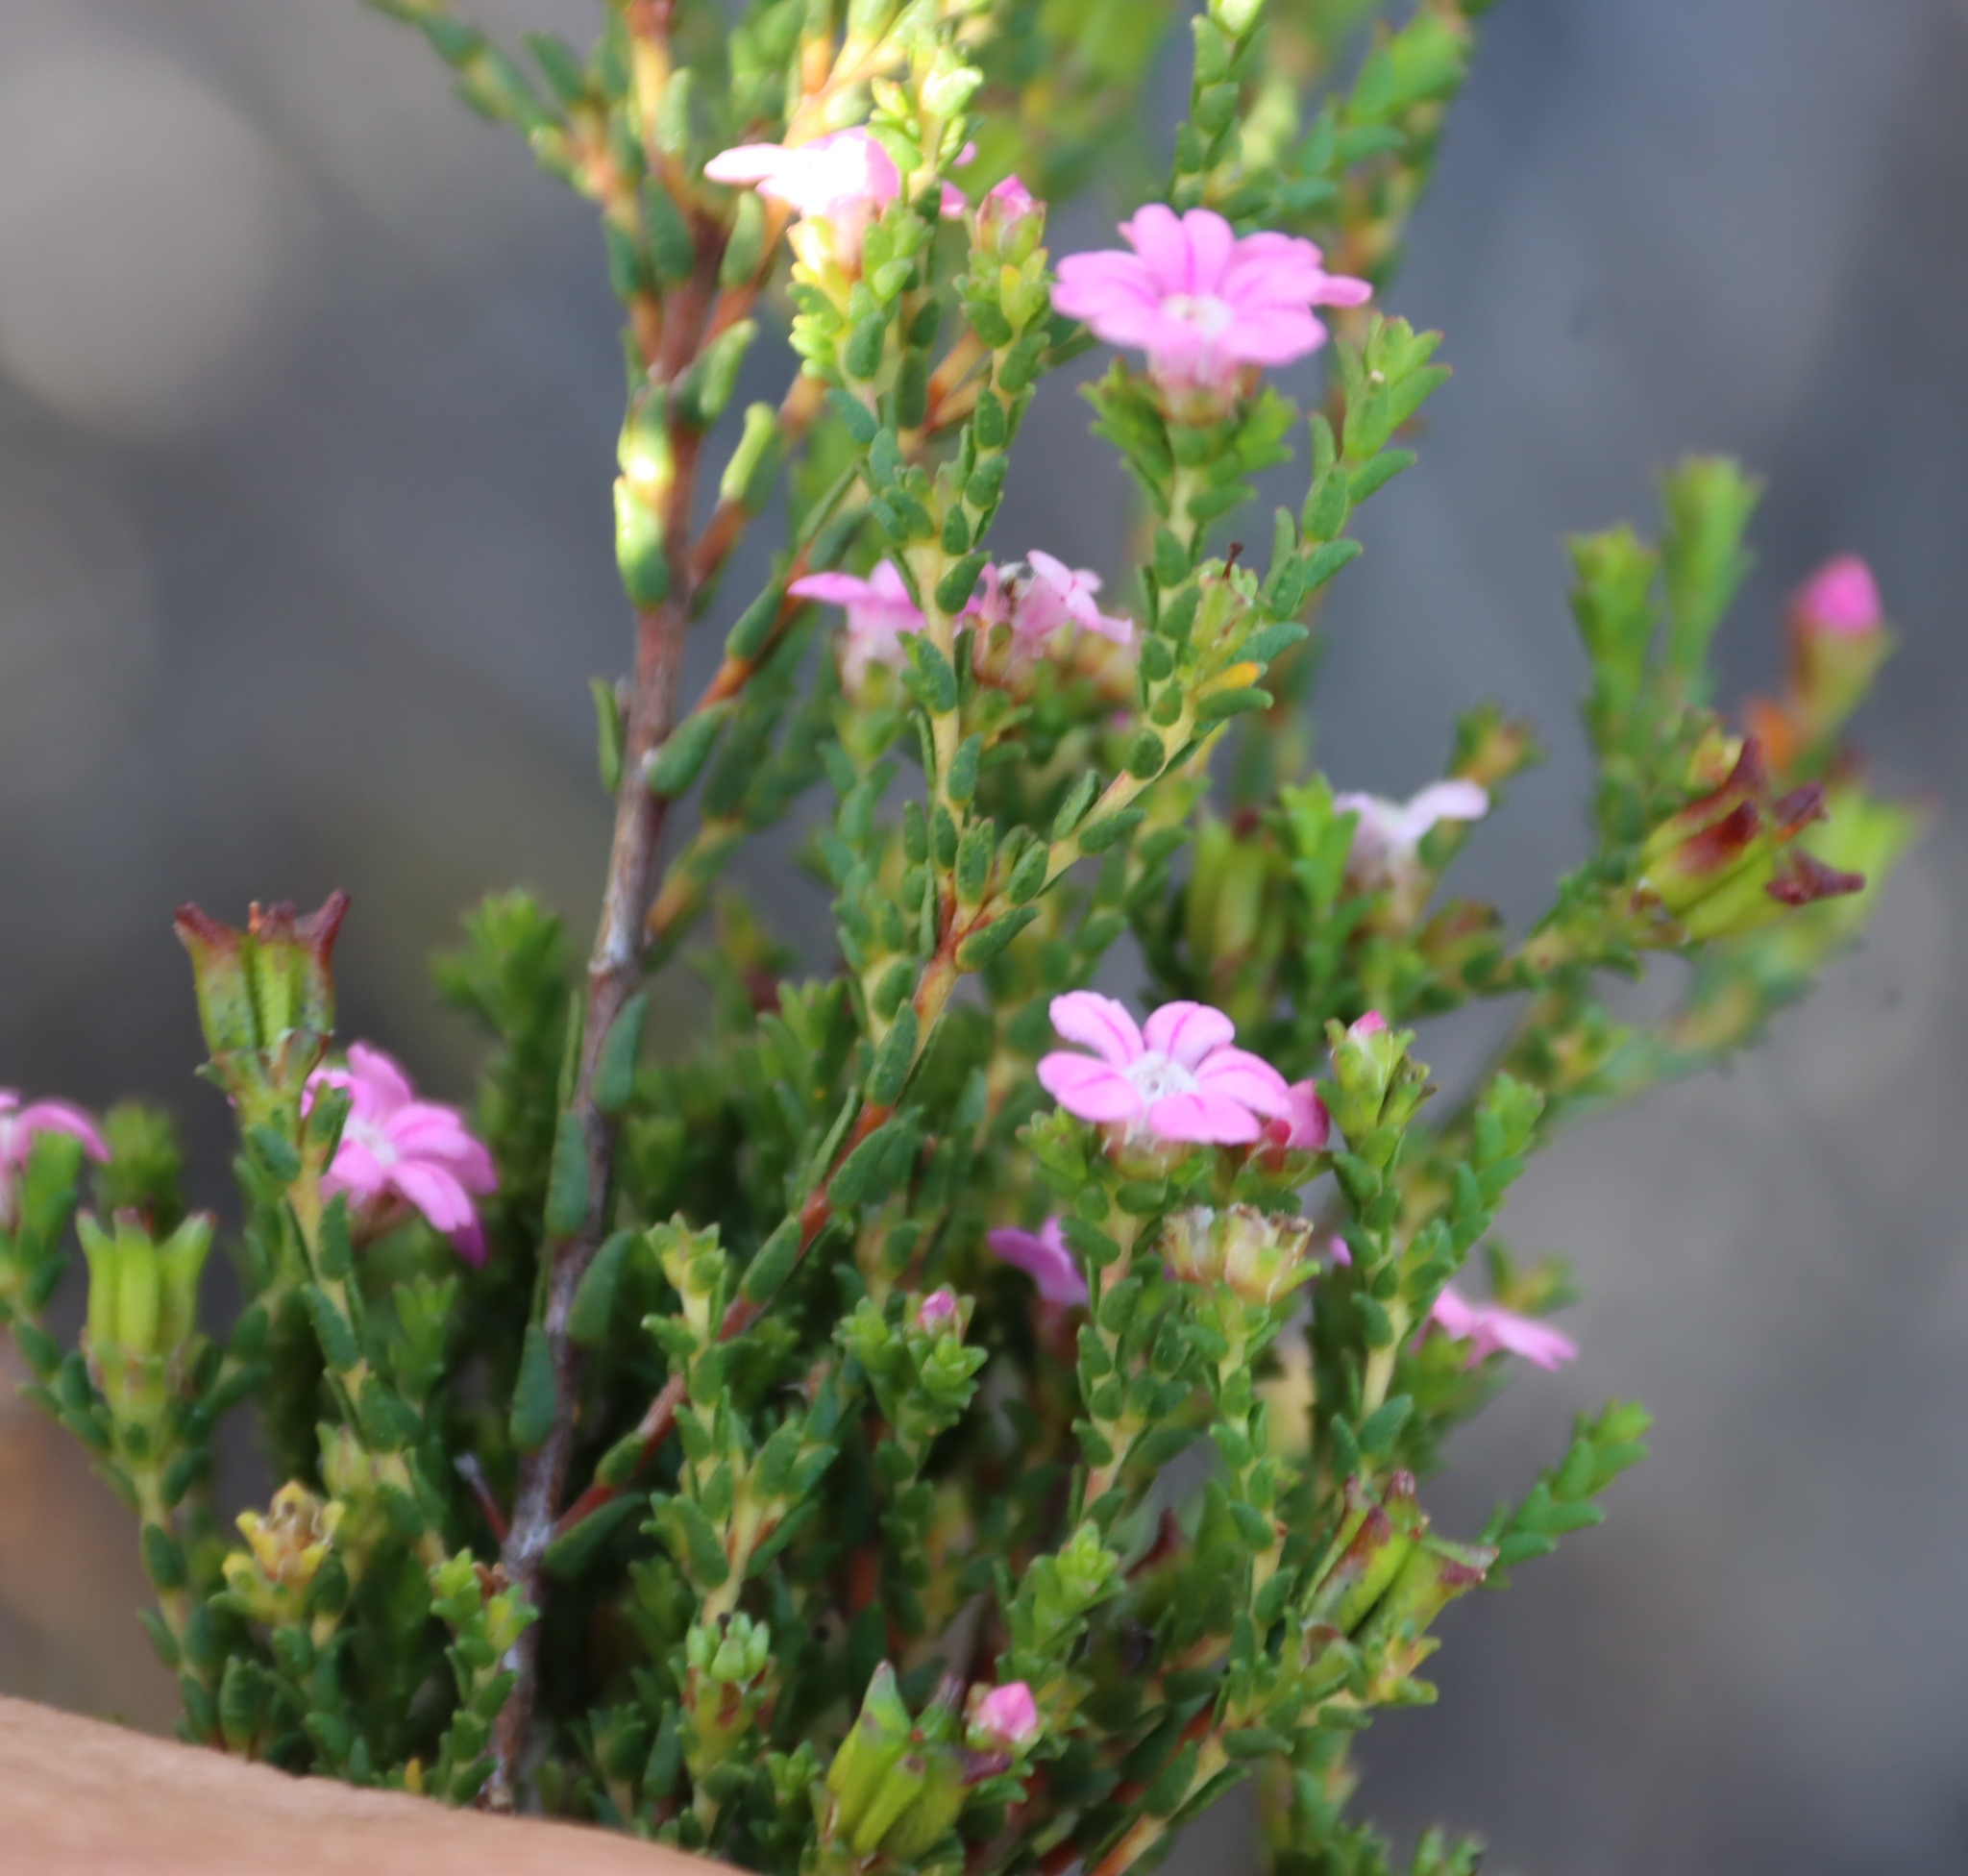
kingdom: Plantae
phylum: Tracheophyta
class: Magnoliopsida
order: Sapindales
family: Rutaceae
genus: Euchaetis
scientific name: Euchaetis albertiniana
